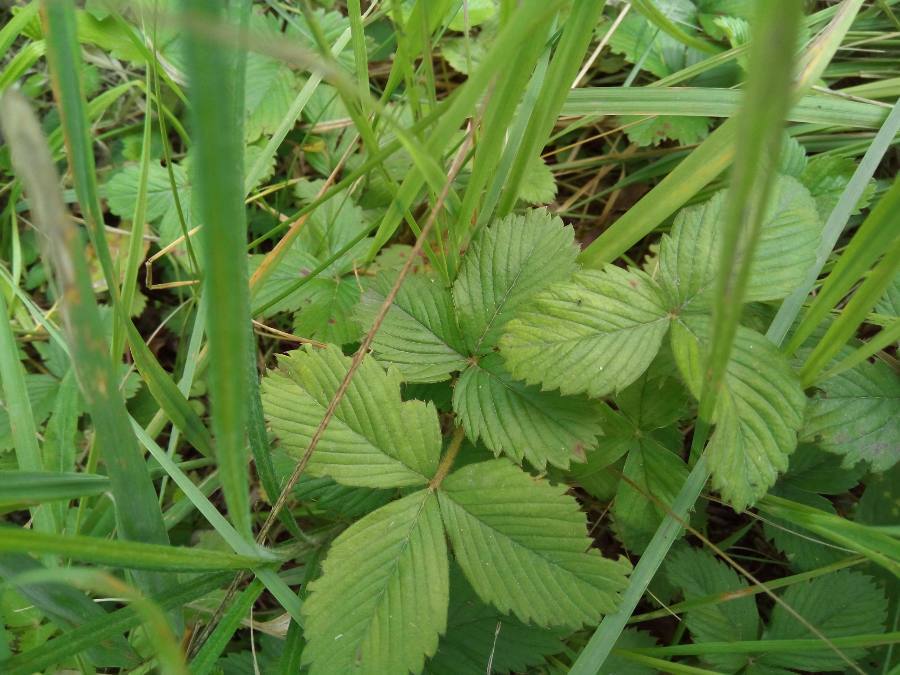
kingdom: Plantae
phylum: Tracheophyta
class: Magnoliopsida
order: Rosales
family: Rosaceae
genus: Fragaria
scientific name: Fragaria viridis
